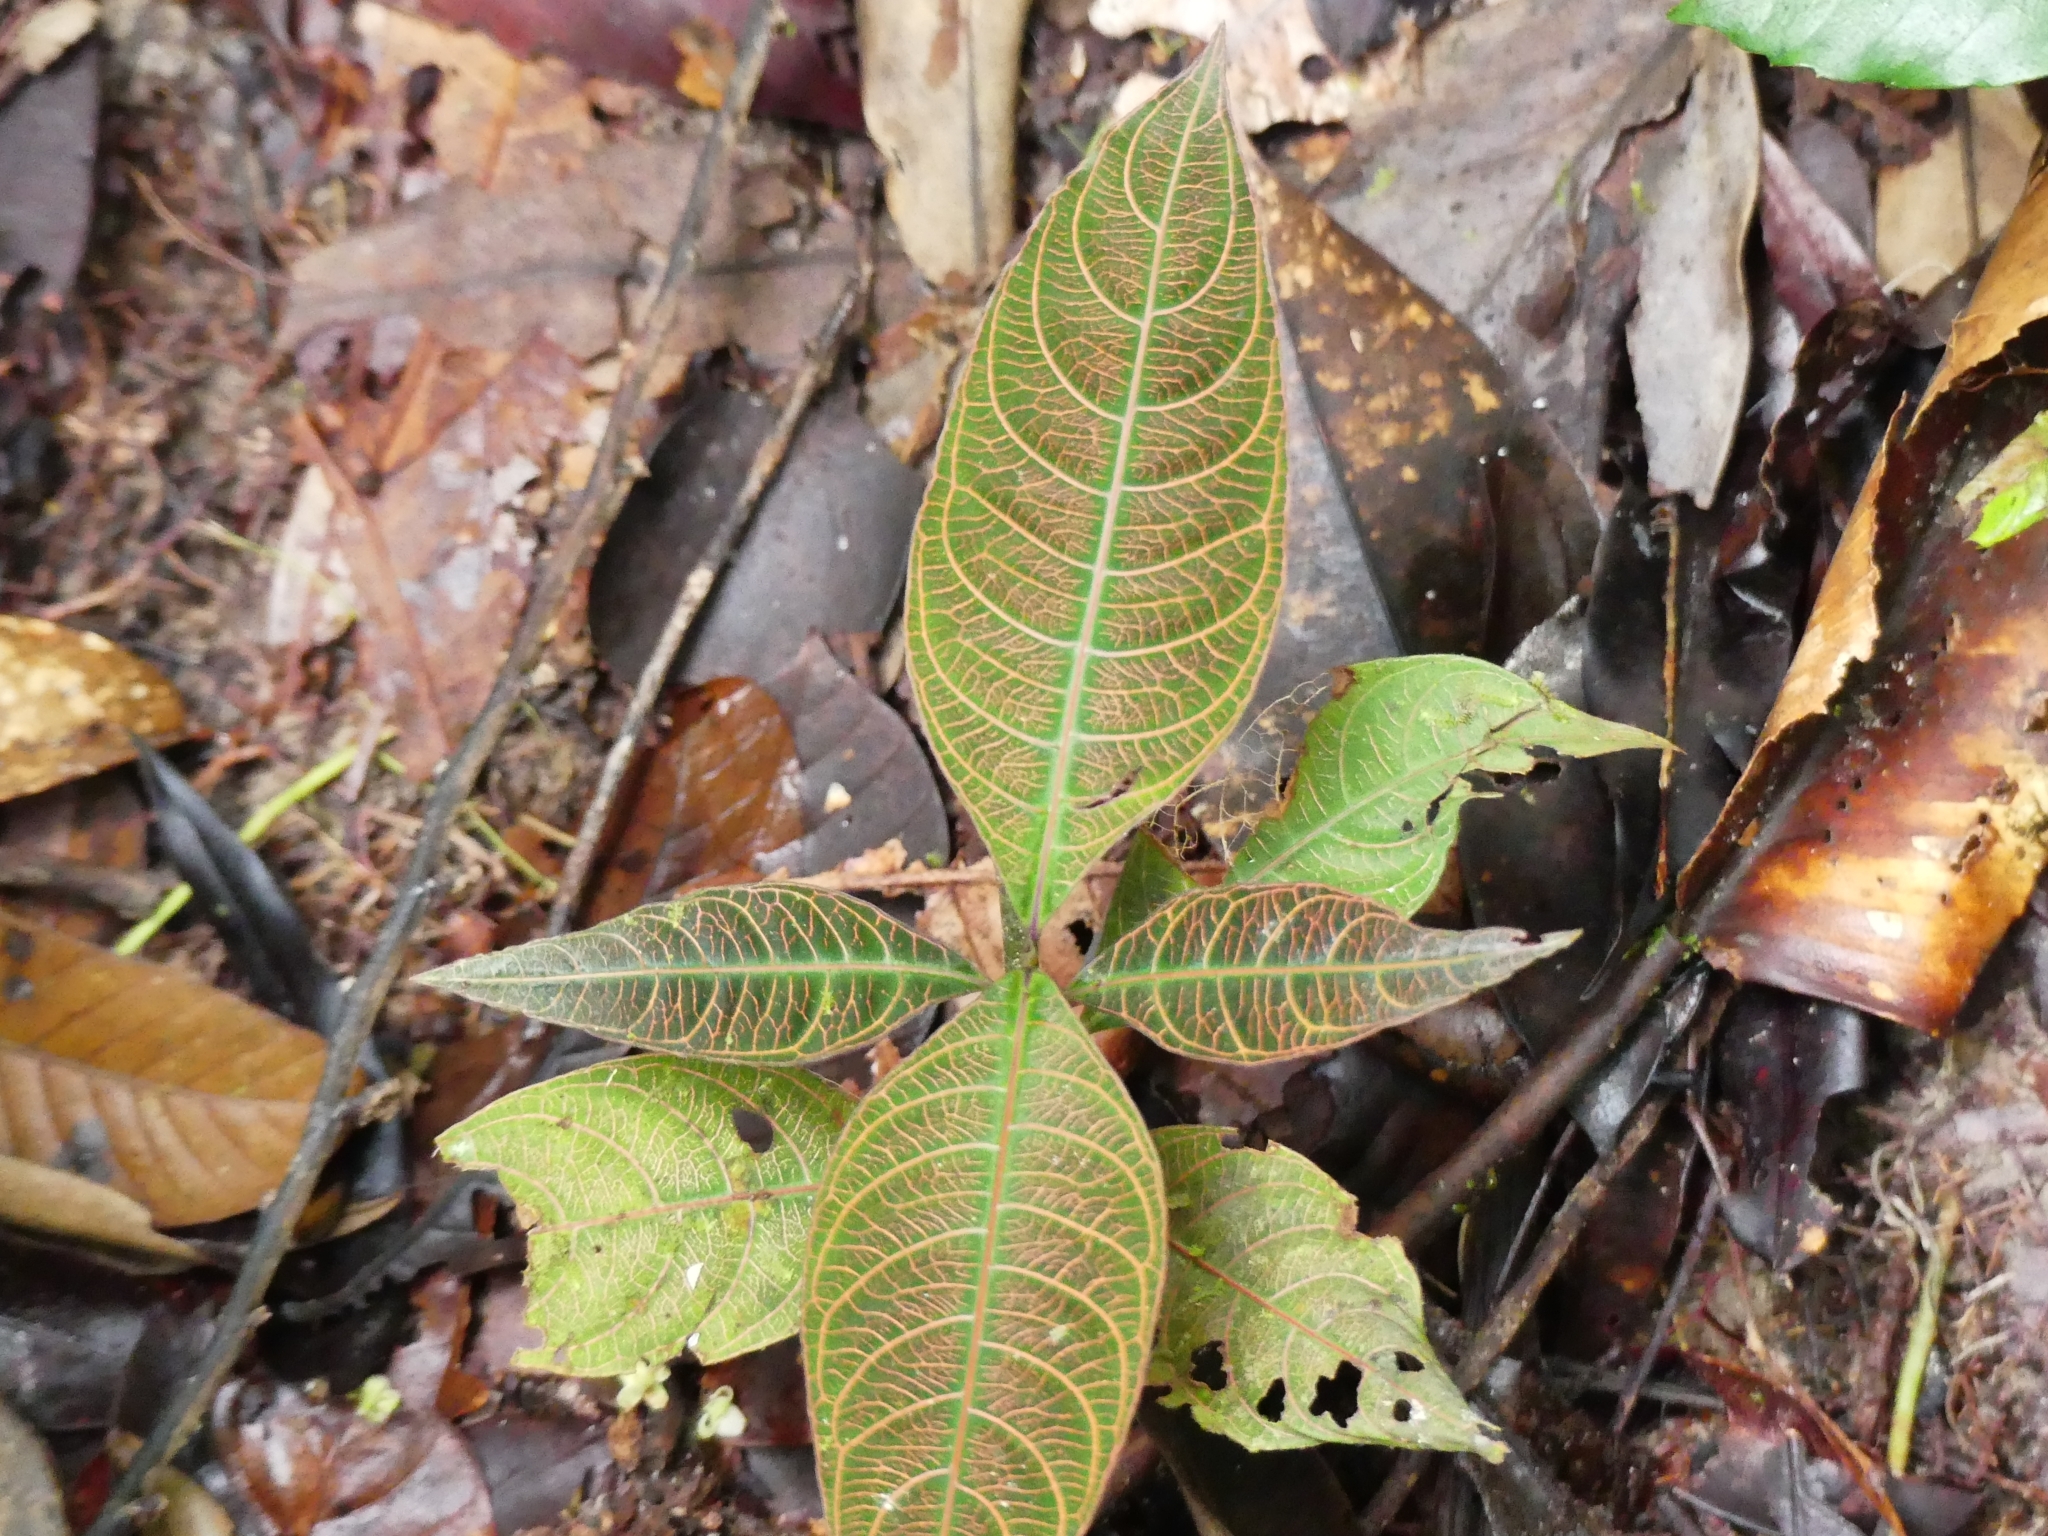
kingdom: Plantae
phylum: Tracheophyta
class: Magnoliopsida
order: Gentianales
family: Rubiaceae
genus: Palicourea
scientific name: Palicourea microbotrys
